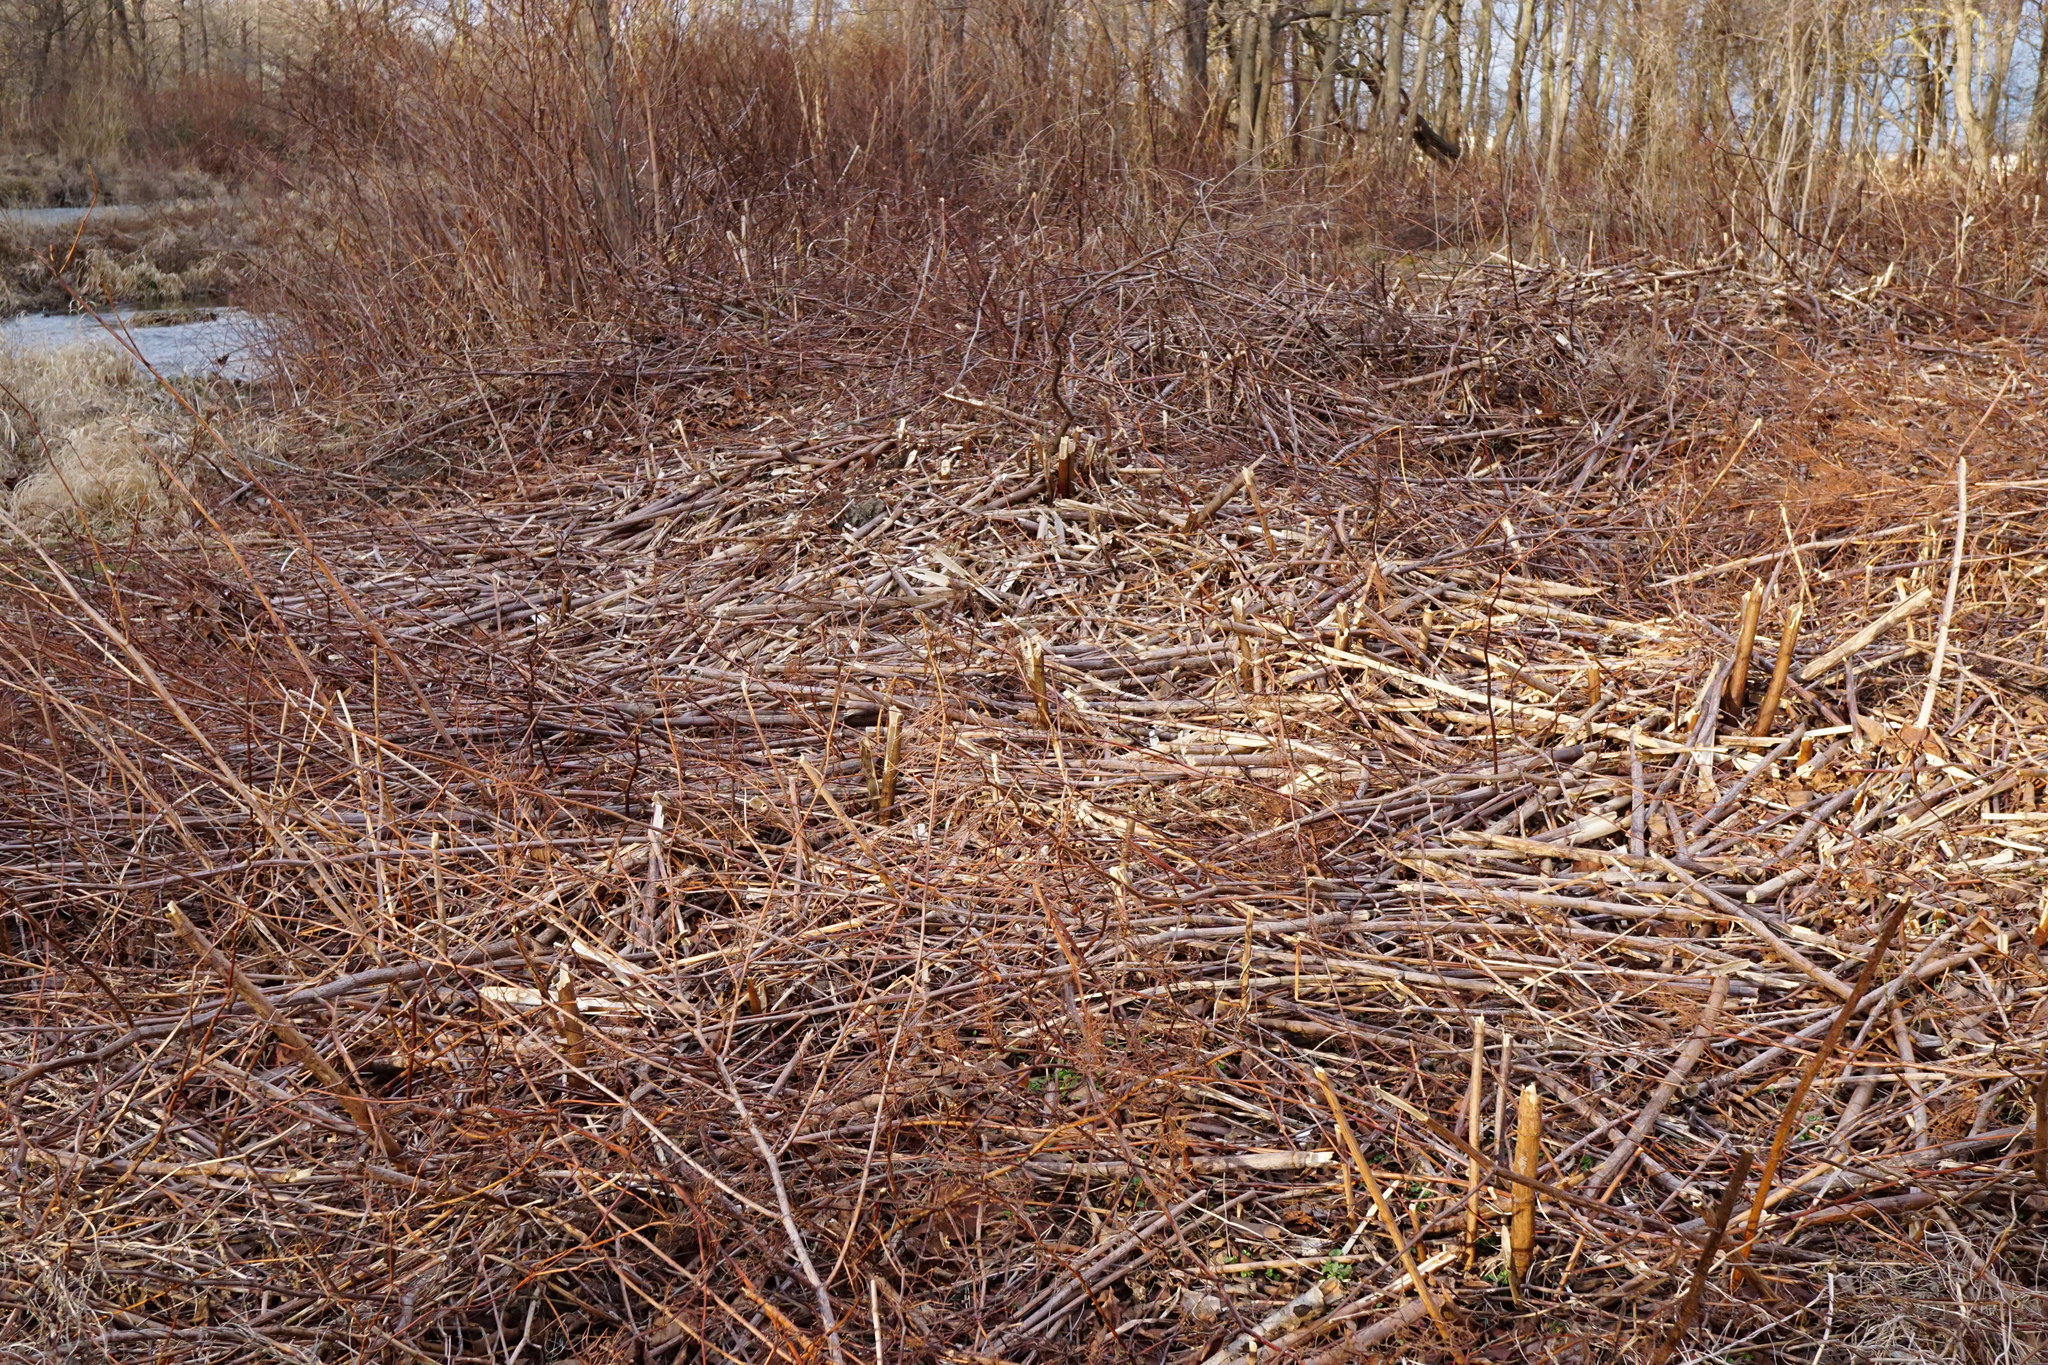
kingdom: Plantae
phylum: Tracheophyta
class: Magnoliopsida
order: Caryophyllales
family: Polygonaceae
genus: Reynoutria
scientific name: Reynoutria bohemica
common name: Bohemian knotweed
